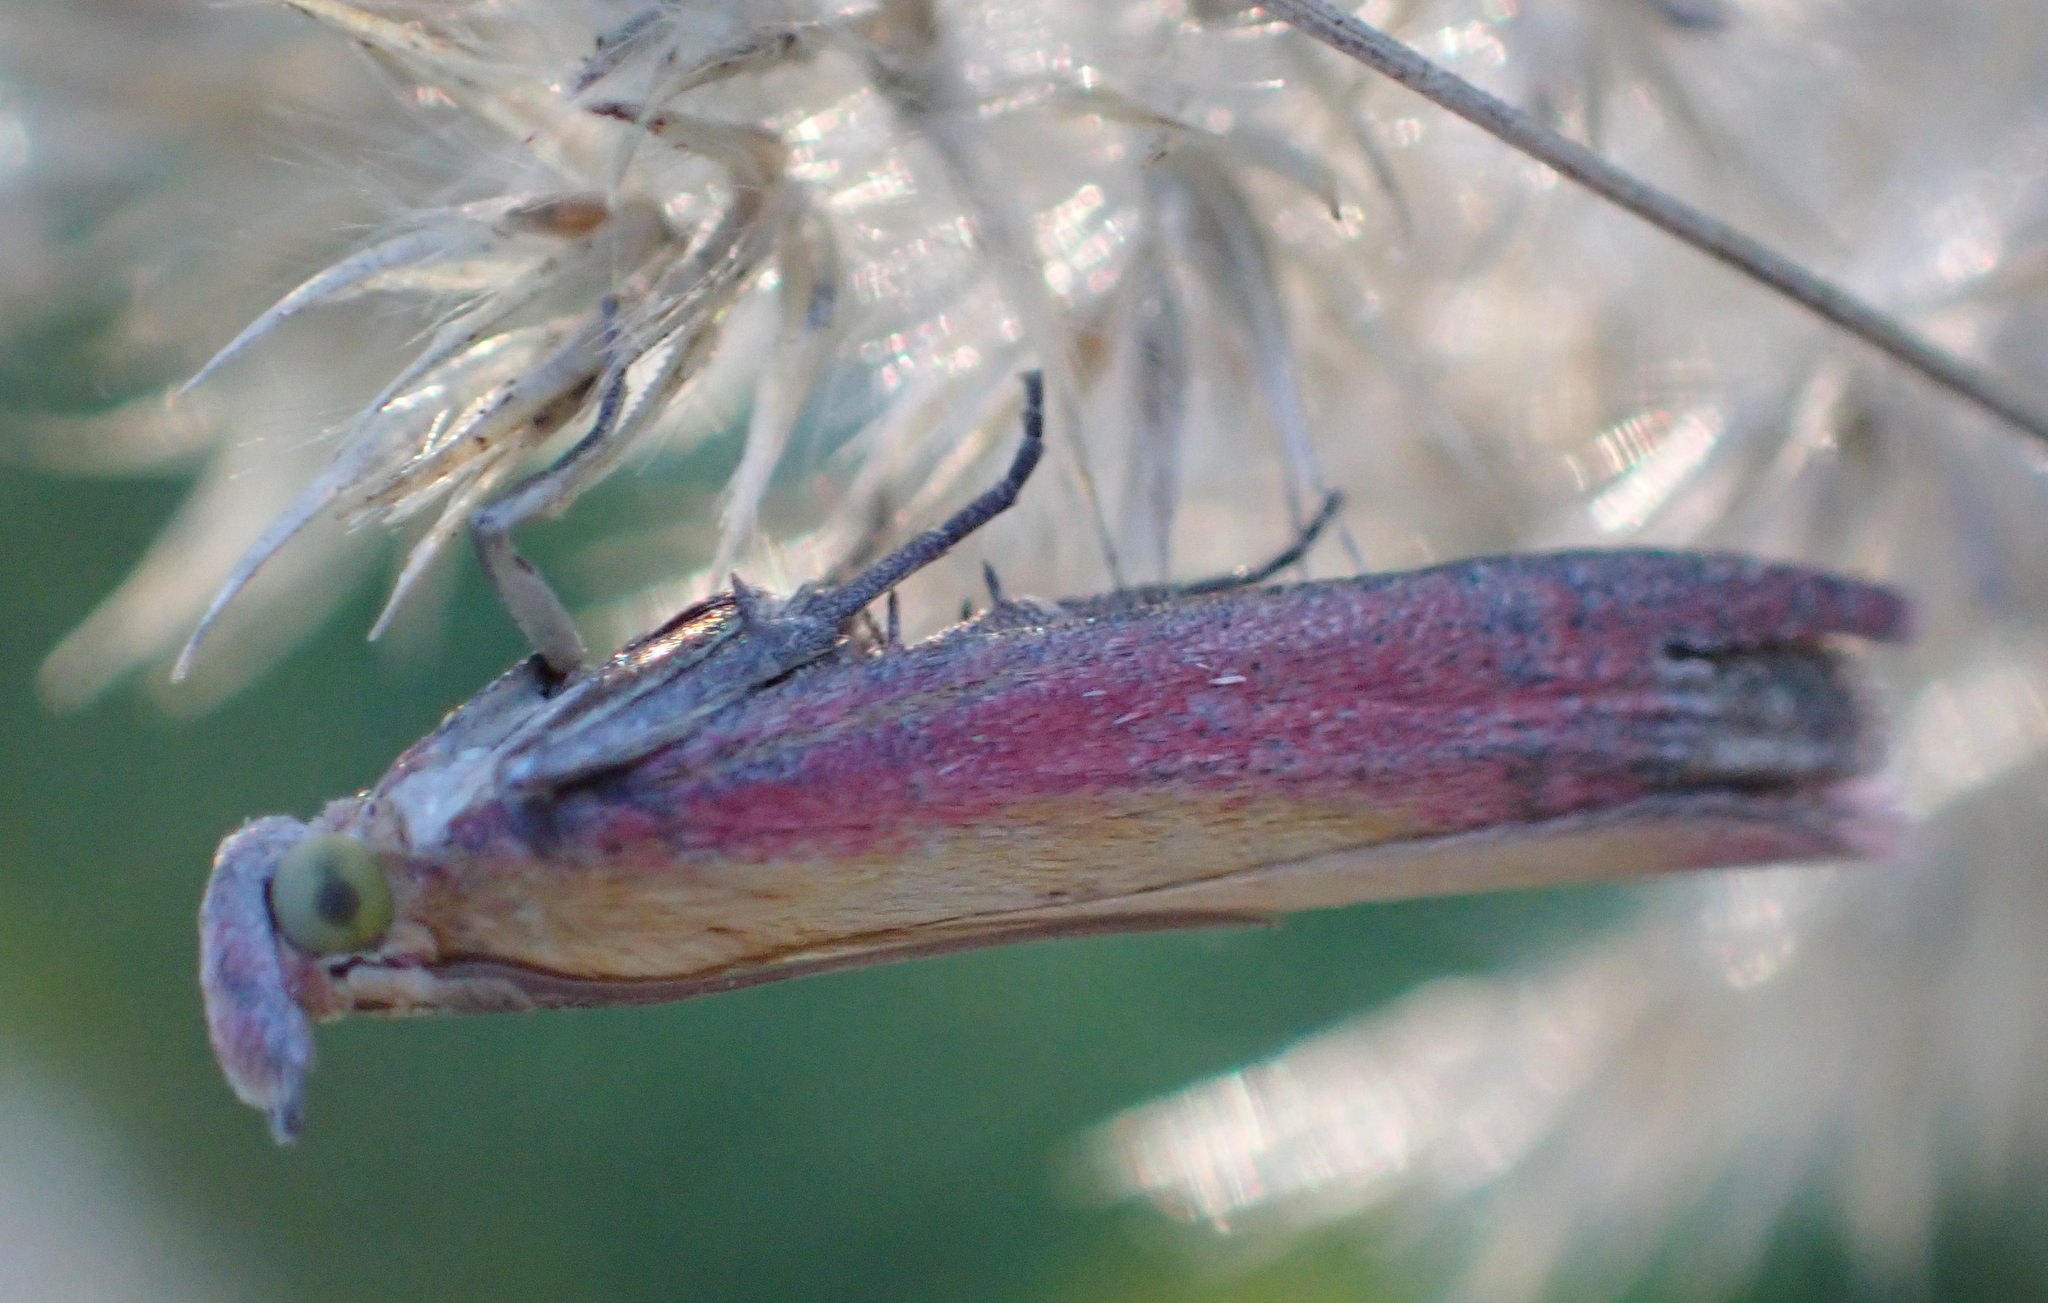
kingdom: Animalia
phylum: Arthropoda
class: Insecta
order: Lepidoptera
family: Pyralidae
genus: Oncocera
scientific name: Oncocera semirubella
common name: Rosy-striped knot-horn
